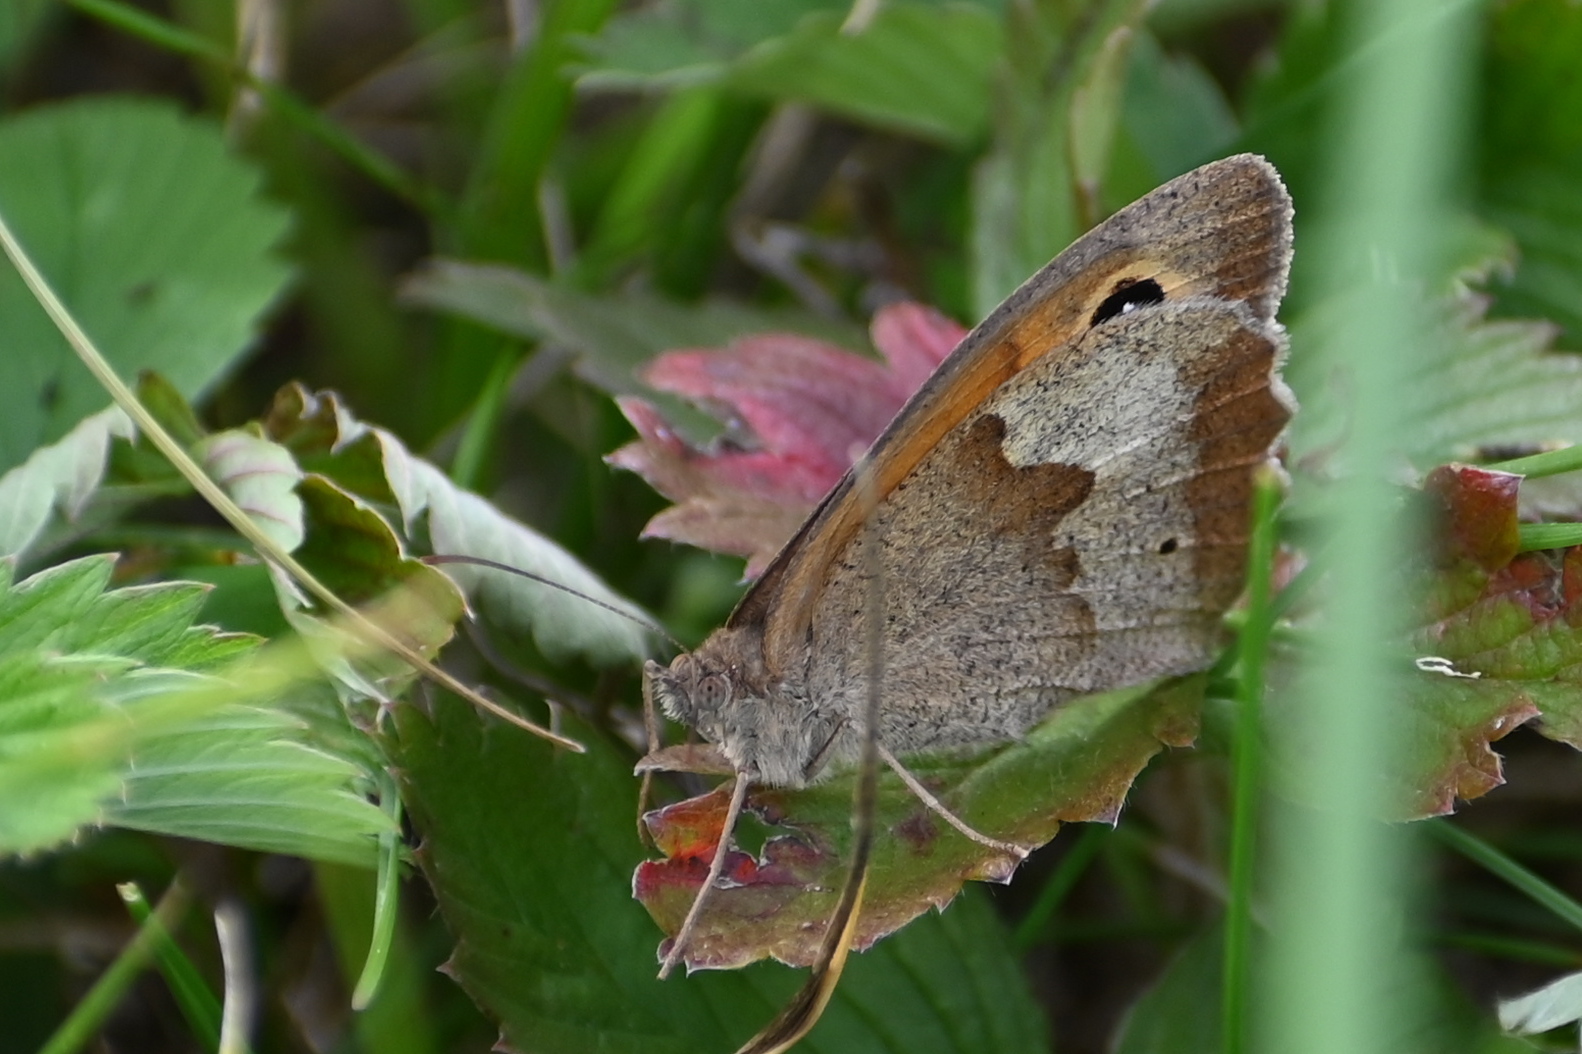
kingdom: Animalia
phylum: Arthropoda
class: Insecta
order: Lepidoptera
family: Nymphalidae
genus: Maniola
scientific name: Maniola jurtina
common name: Meadow brown
